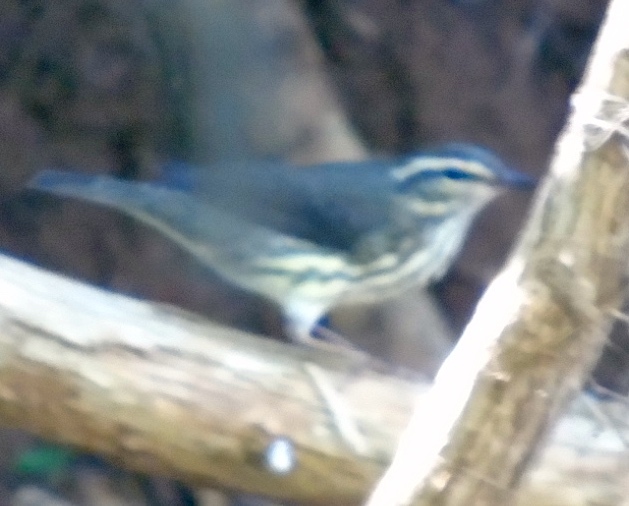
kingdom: Animalia
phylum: Chordata
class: Aves
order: Passeriformes
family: Parulidae
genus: Parkesia
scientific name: Parkesia motacilla
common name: Louisiana waterthrush
